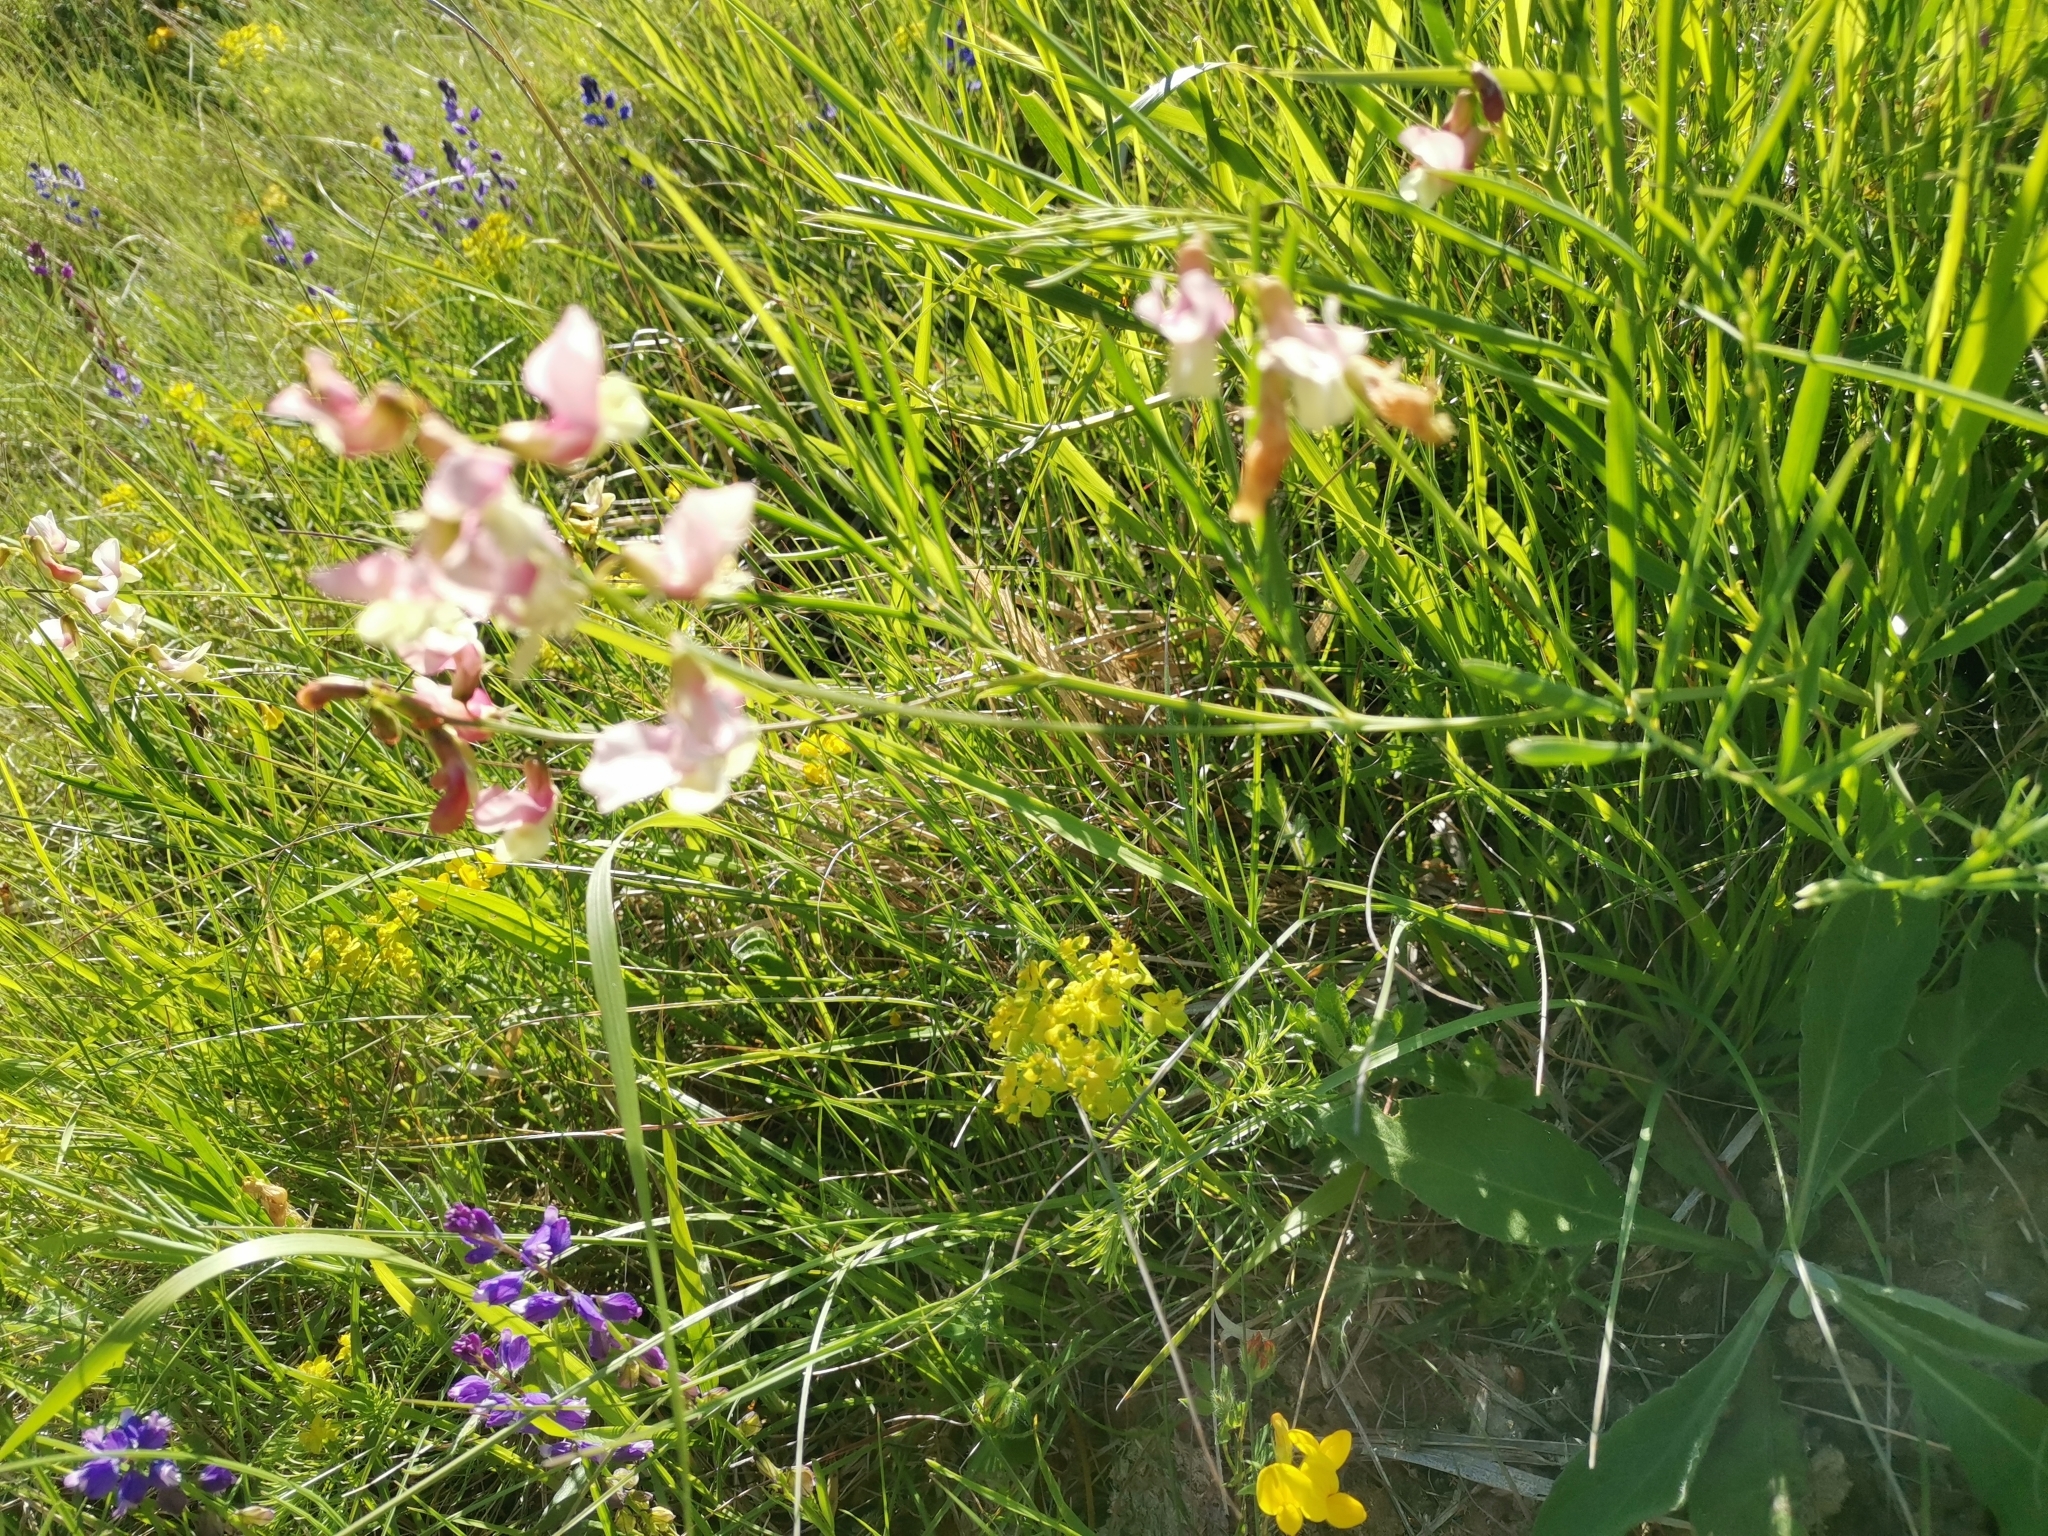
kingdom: Plantae
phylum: Tracheophyta
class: Magnoliopsida
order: Fabales
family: Fabaceae
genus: Lathyrus
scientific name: Lathyrus pannonicus
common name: Pea
